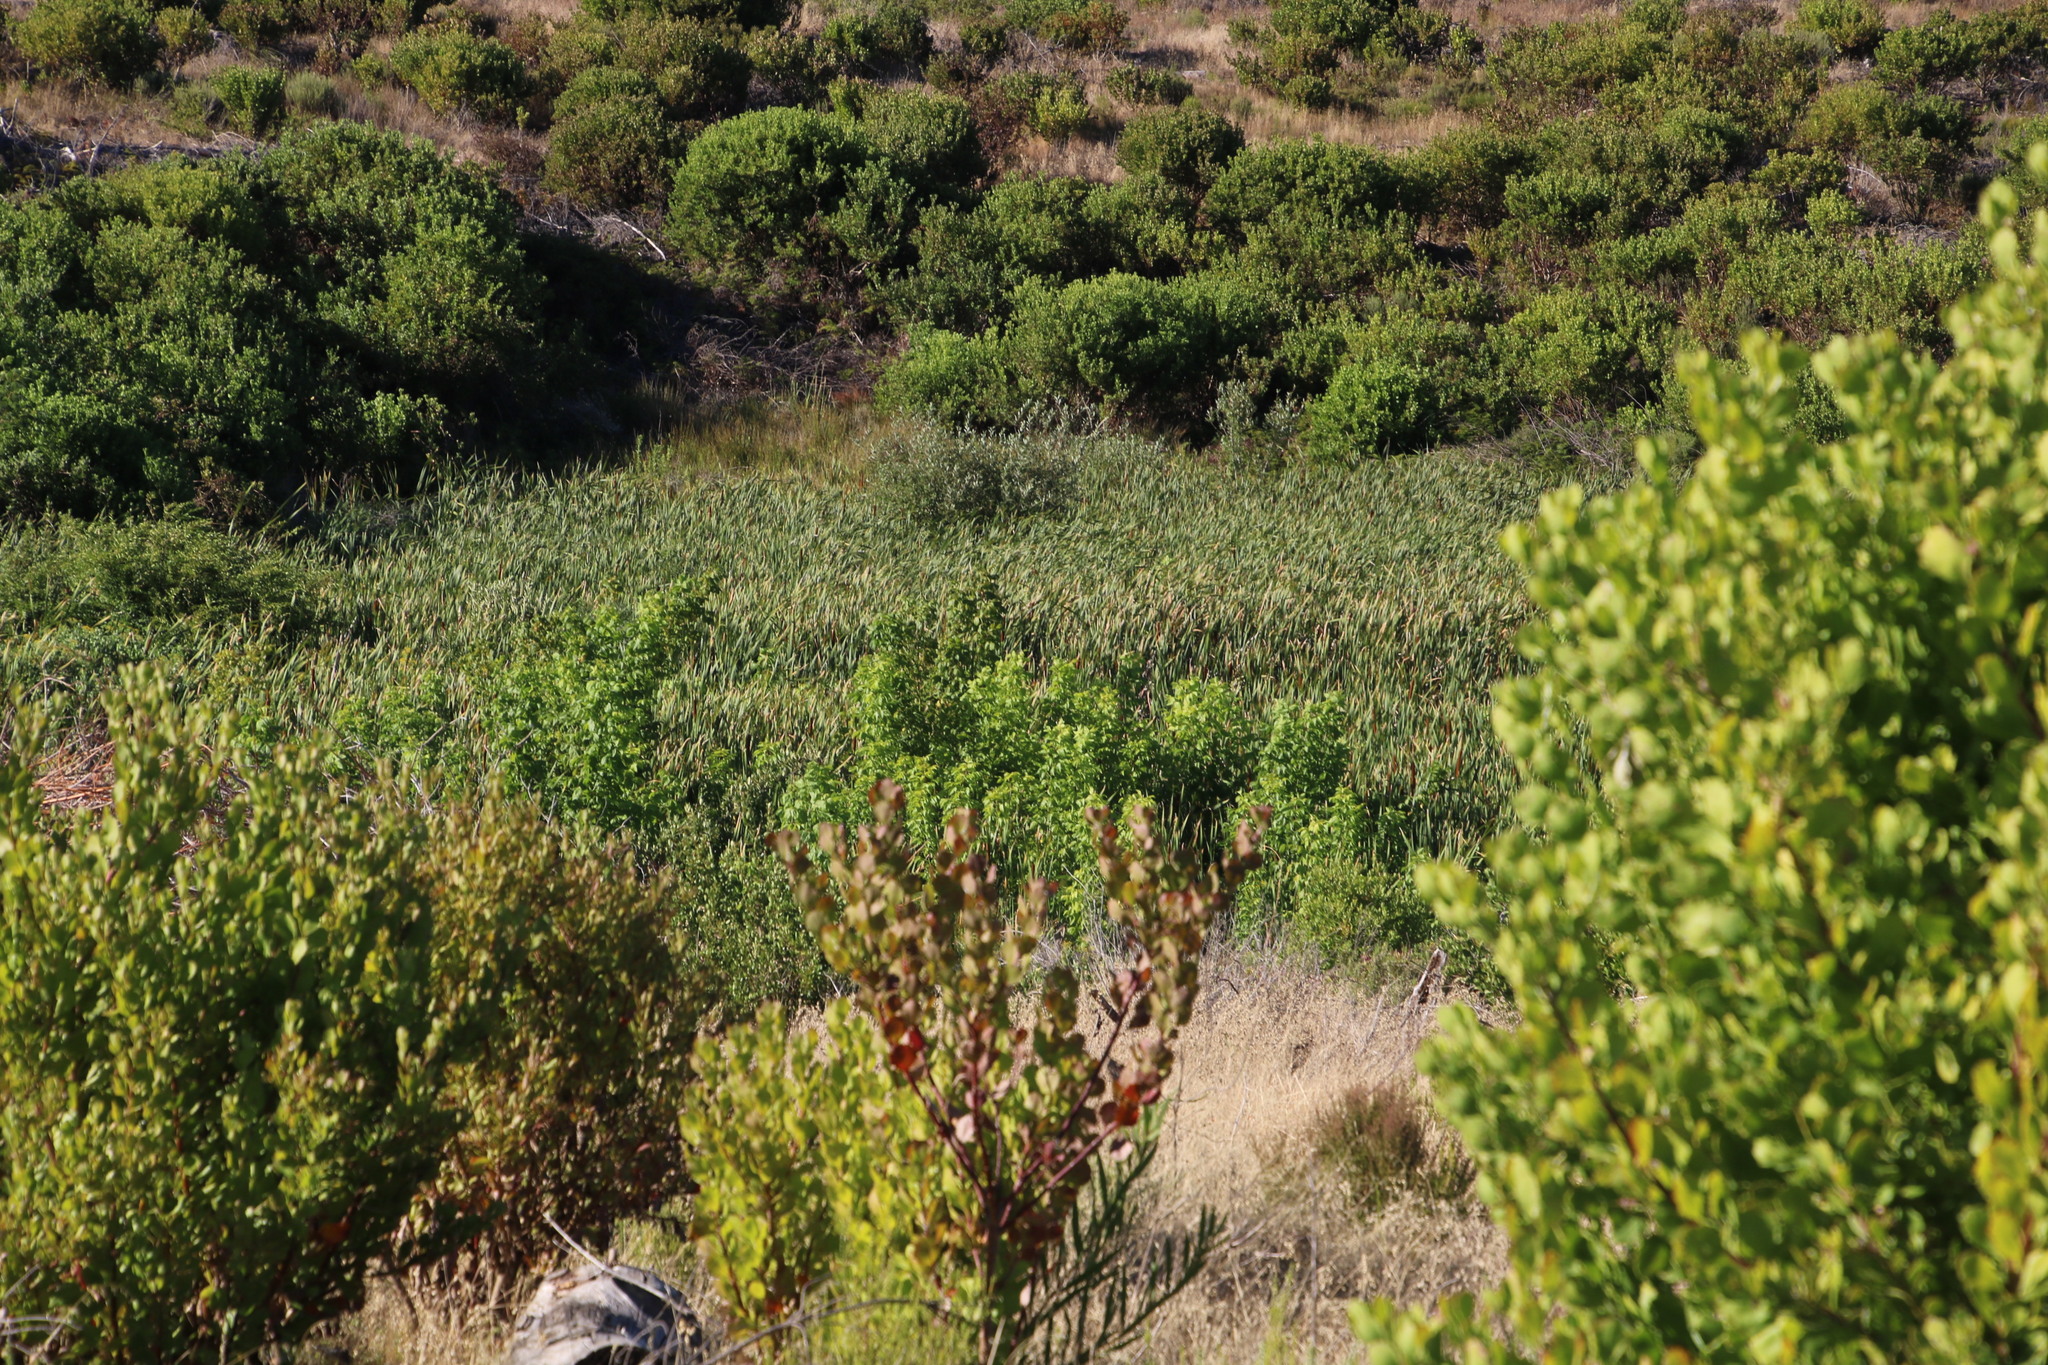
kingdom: Plantae
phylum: Tracheophyta
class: Magnoliopsida
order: Sapindales
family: Sapindaceae
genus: Acer
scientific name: Acer negundo
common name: Ashleaf maple
